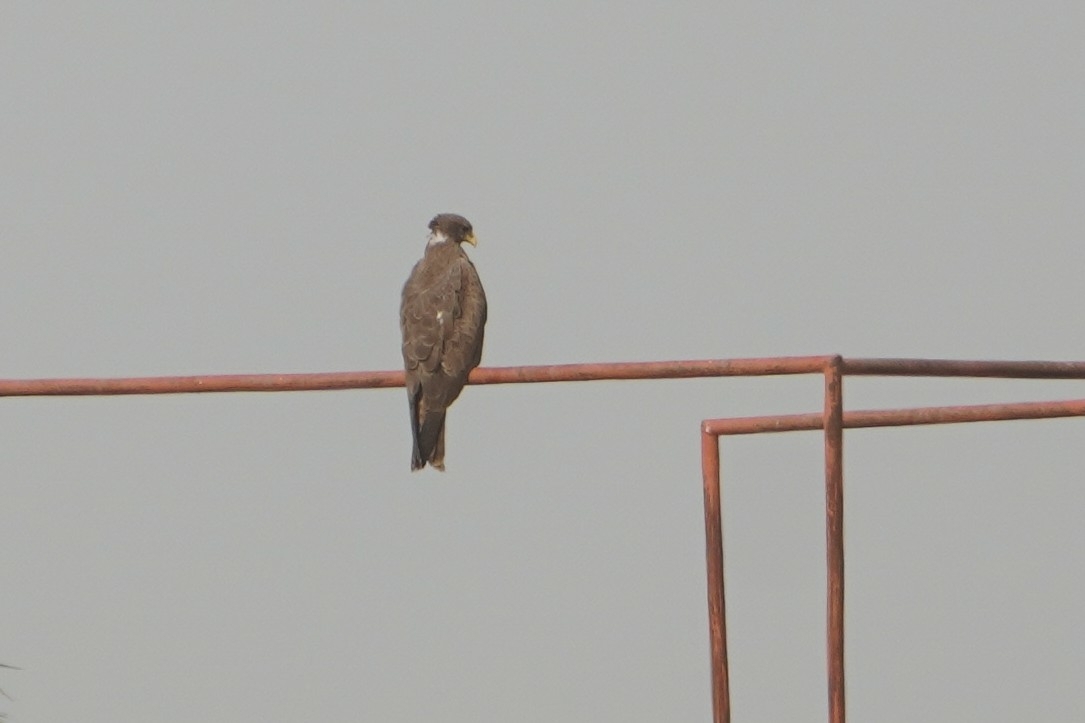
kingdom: Animalia
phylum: Chordata
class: Aves
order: Accipitriformes
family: Accipitridae
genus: Milvus
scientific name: Milvus migrans
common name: Black kite
